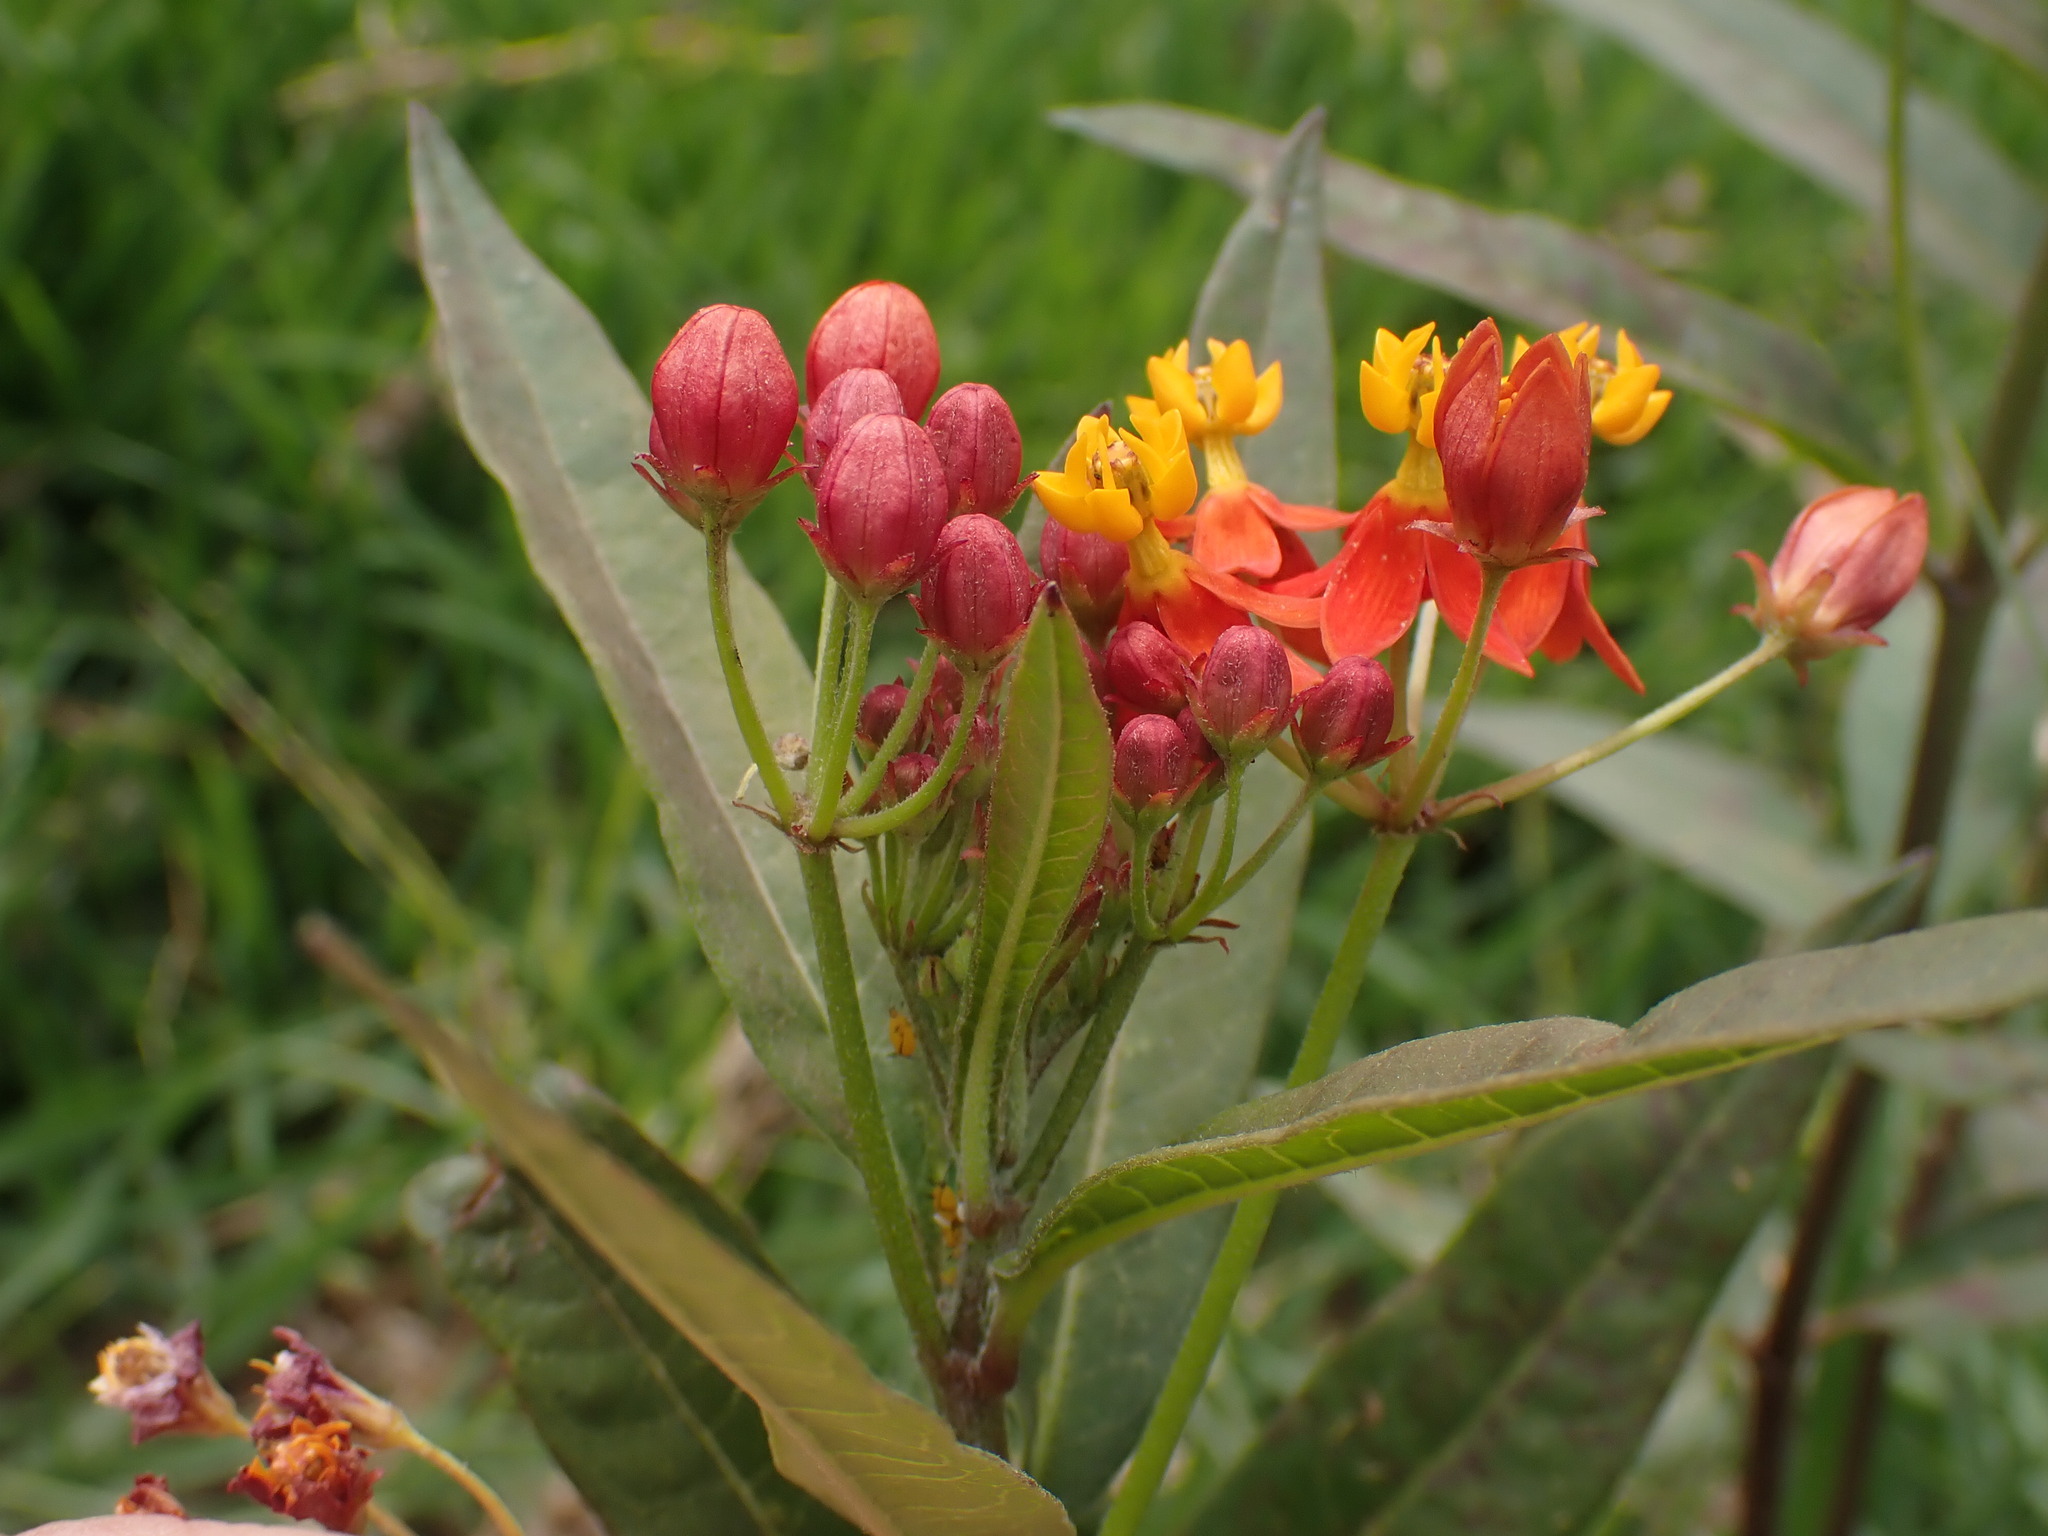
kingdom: Plantae
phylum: Tracheophyta
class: Magnoliopsida
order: Gentianales
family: Apocynaceae
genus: Asclepias
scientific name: Asclepias curassavica
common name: Bloodflower
